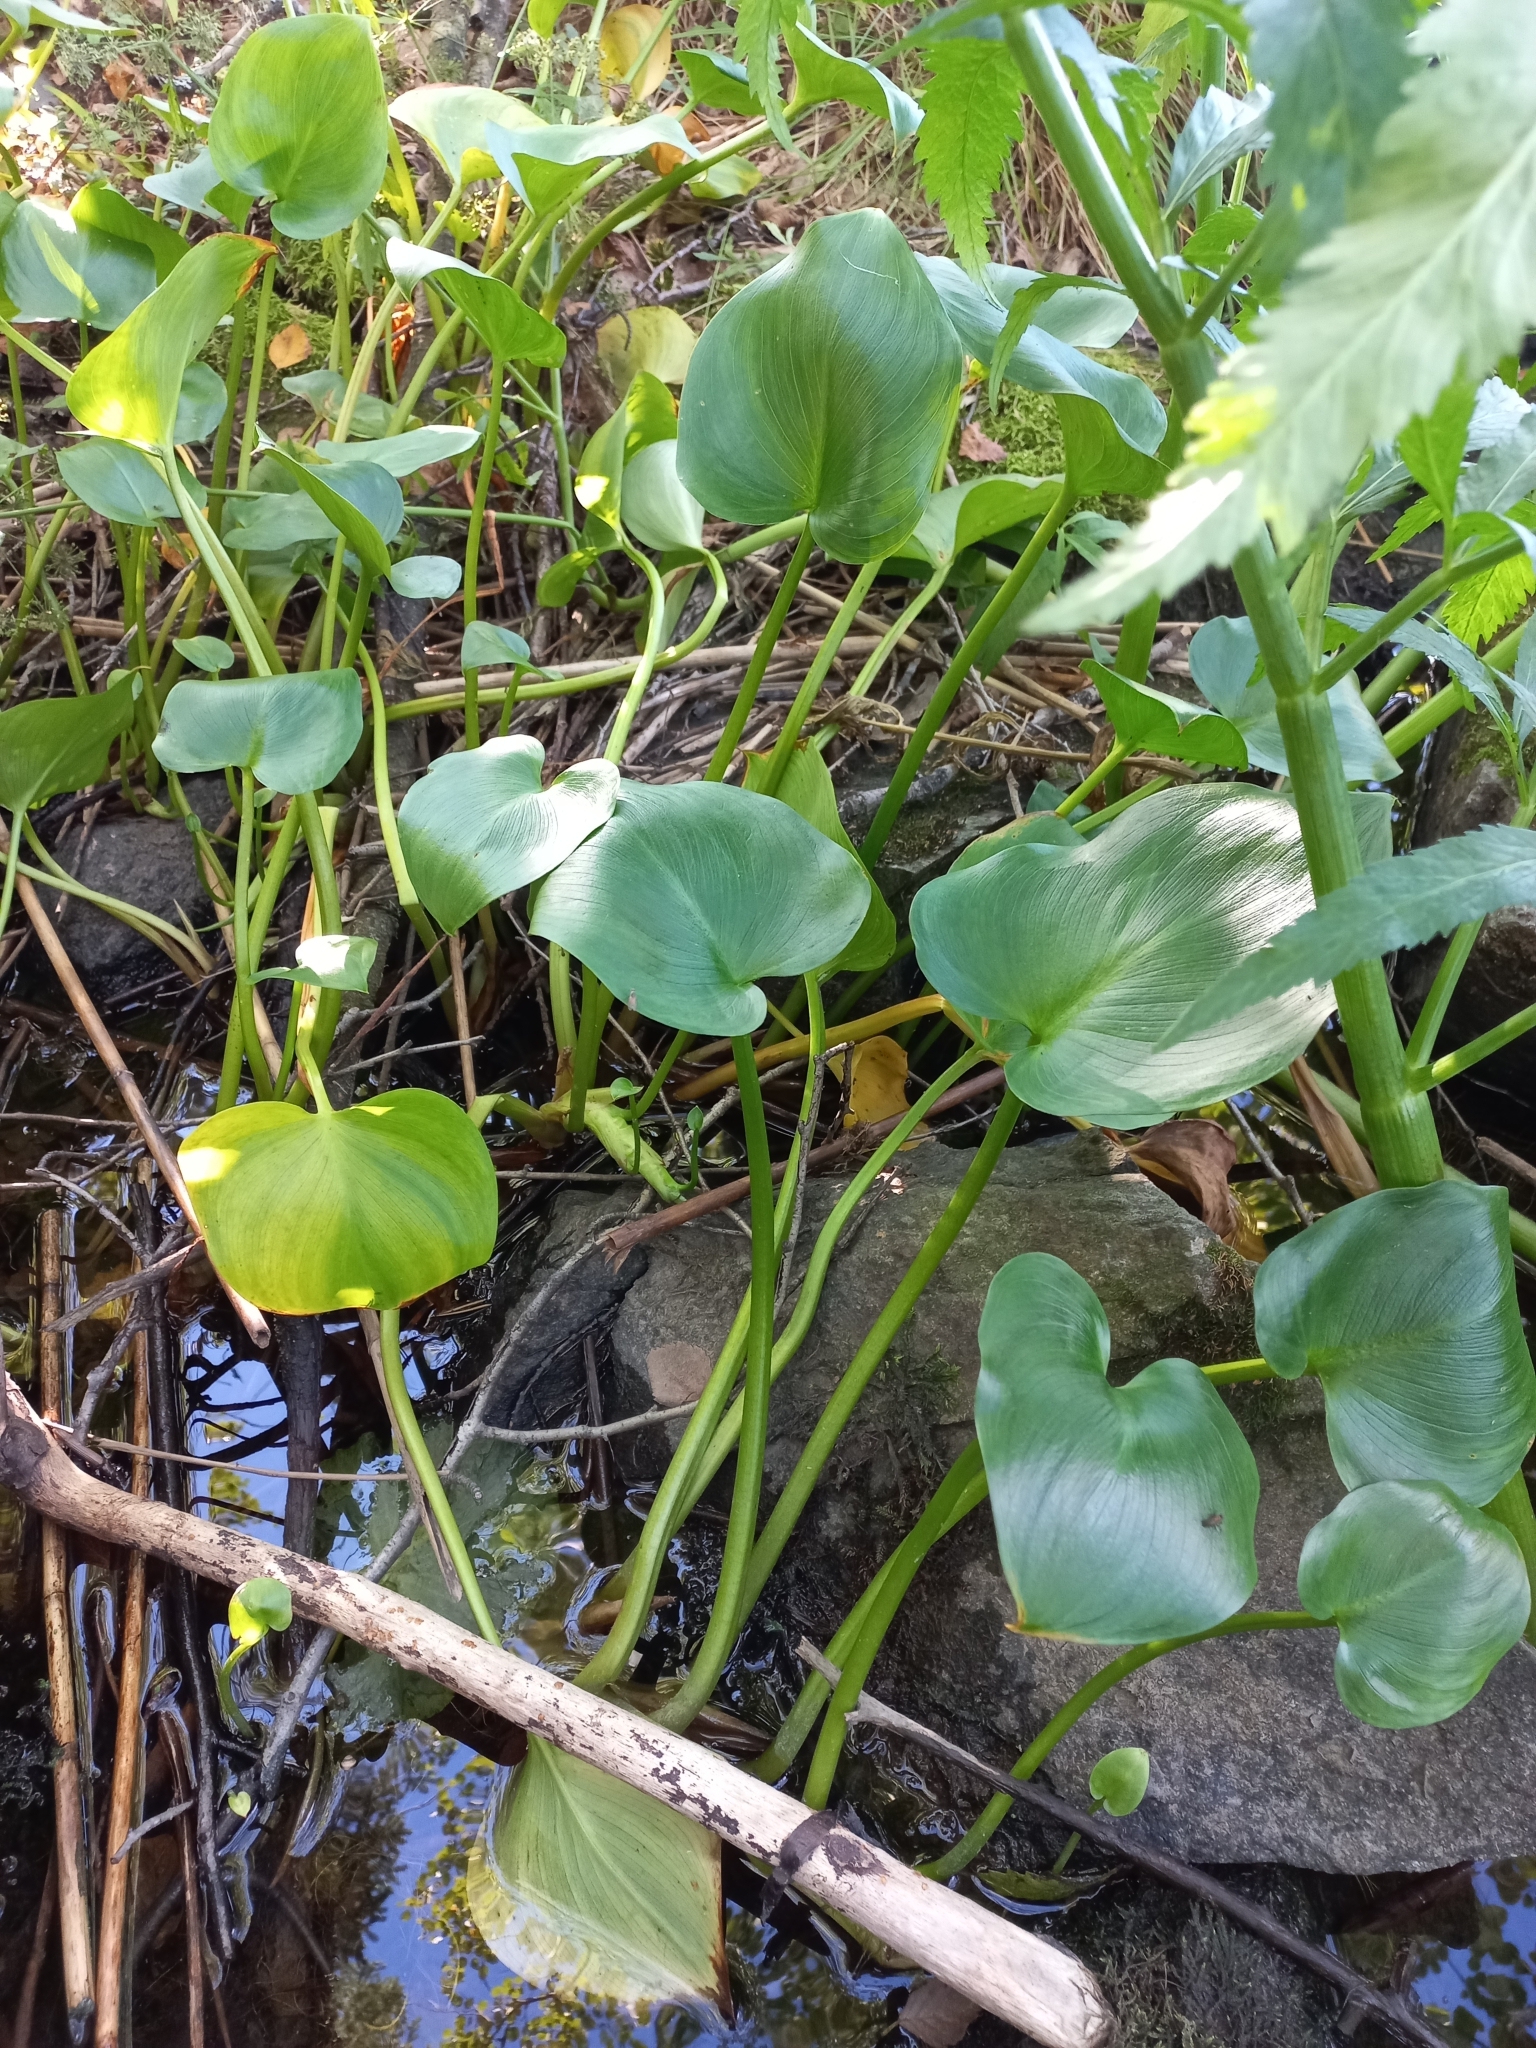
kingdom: Plantae
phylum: Tracheophyta
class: Liliopsida
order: Alismatales
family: Araceae
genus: Calla
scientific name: Calla palustris
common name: Bog arum
